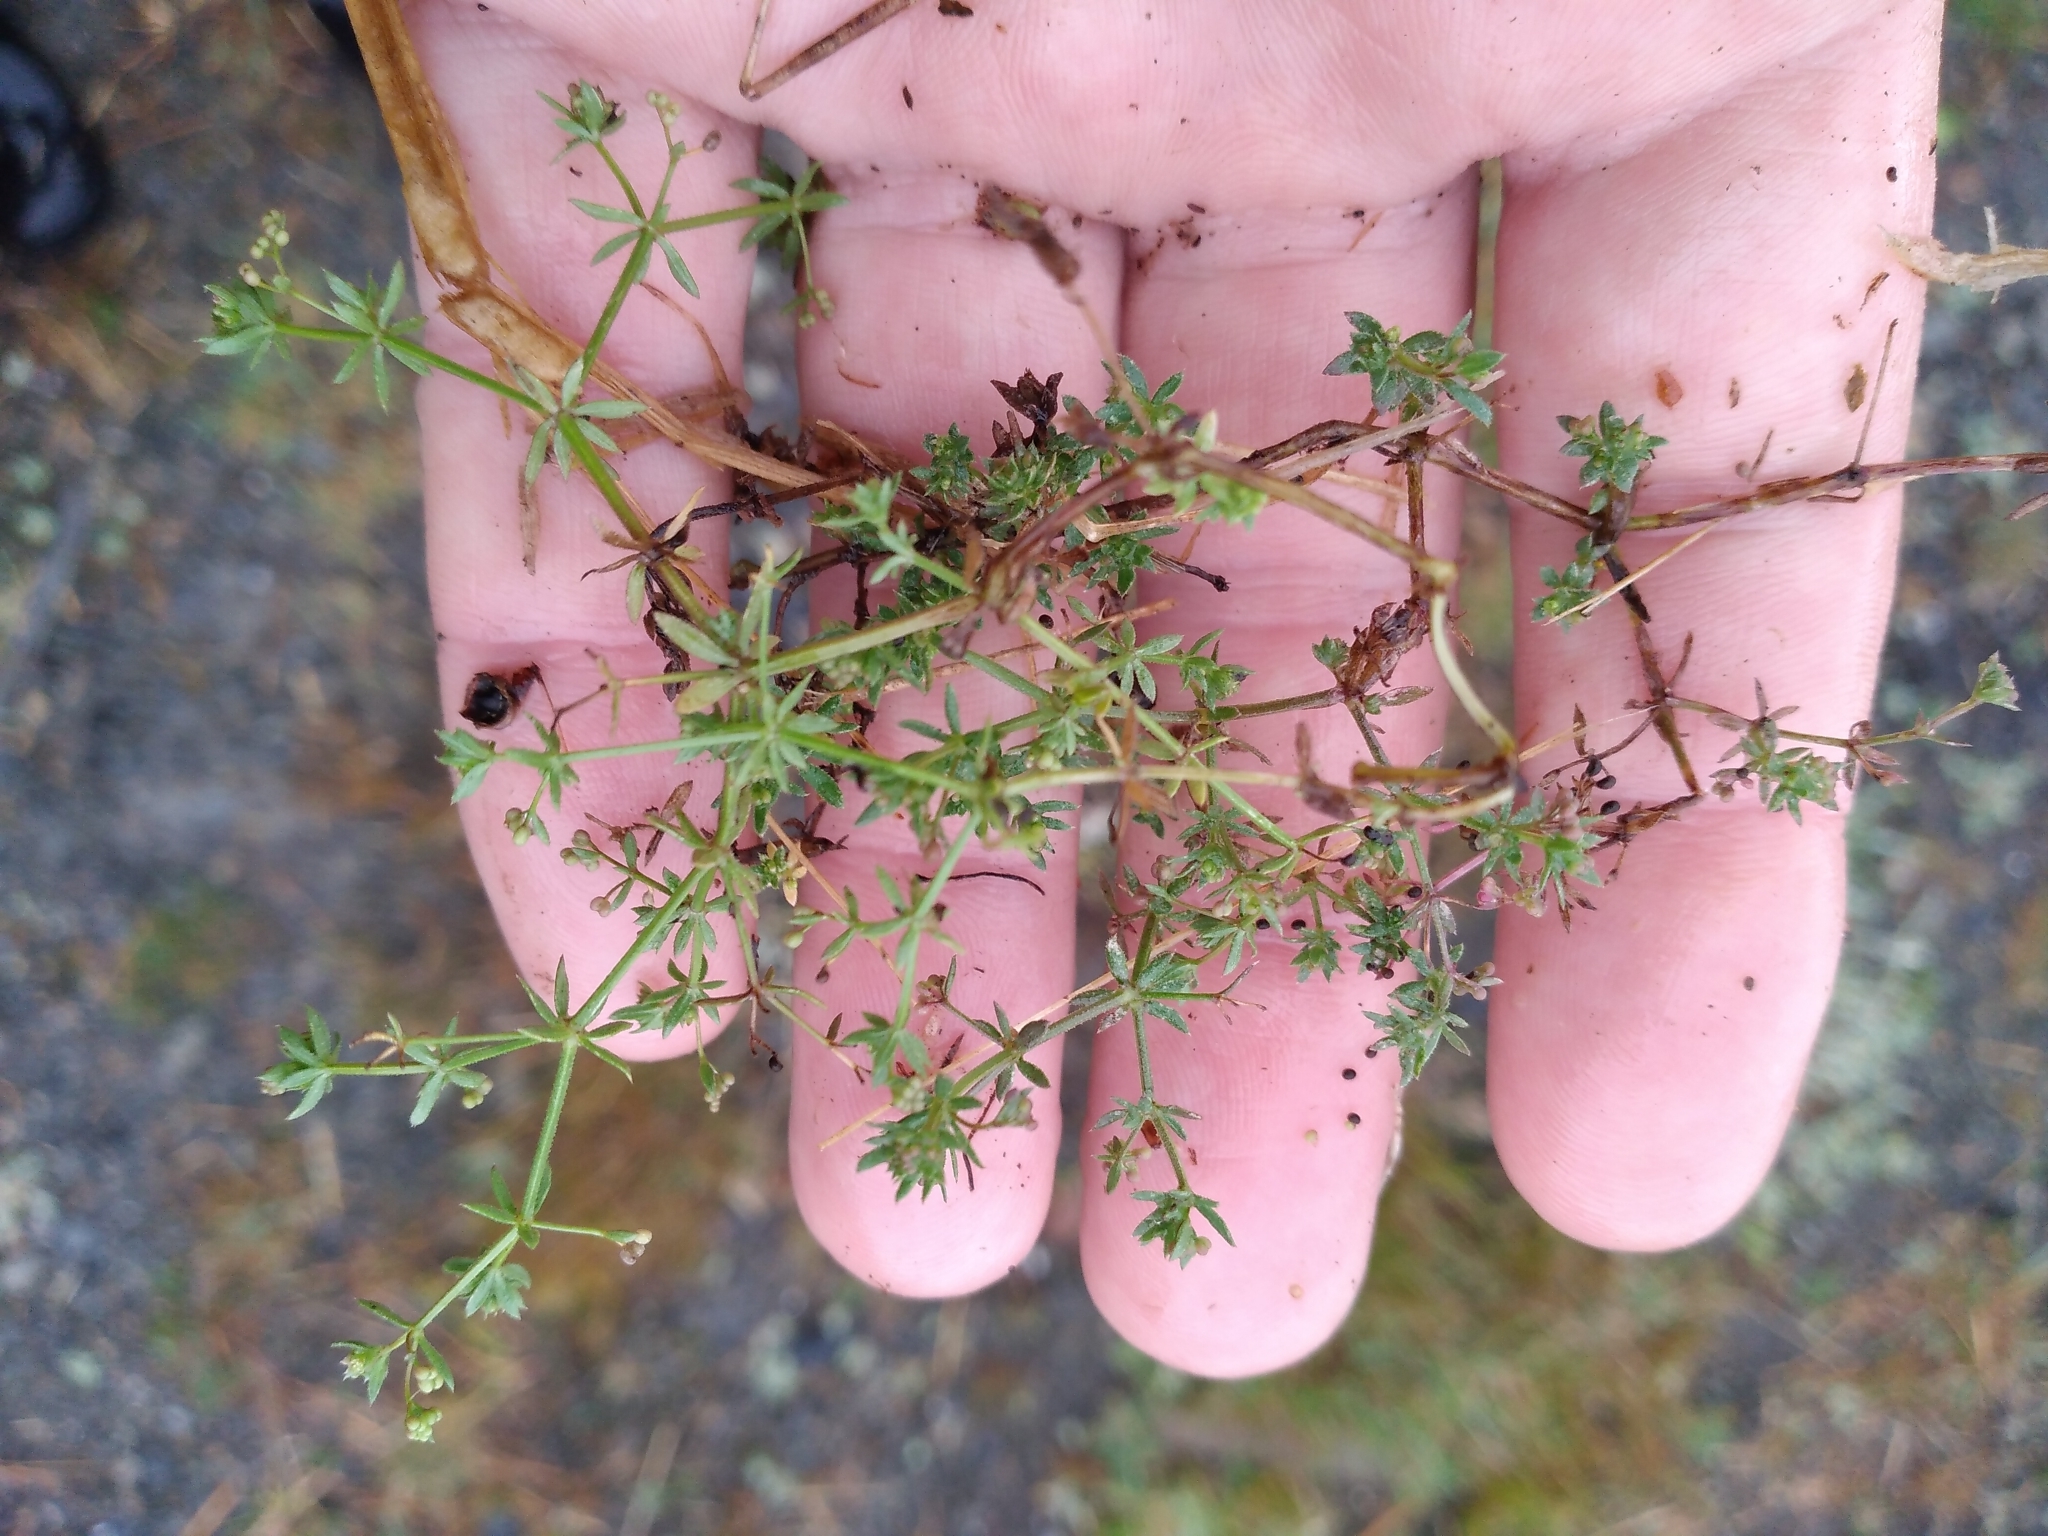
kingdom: Plantae
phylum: Tracheophyta
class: Magnoliopsida
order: Gentianales
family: Rubiaceae
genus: Galium
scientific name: Galium divaricatum
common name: Lamarck's bedstraw
